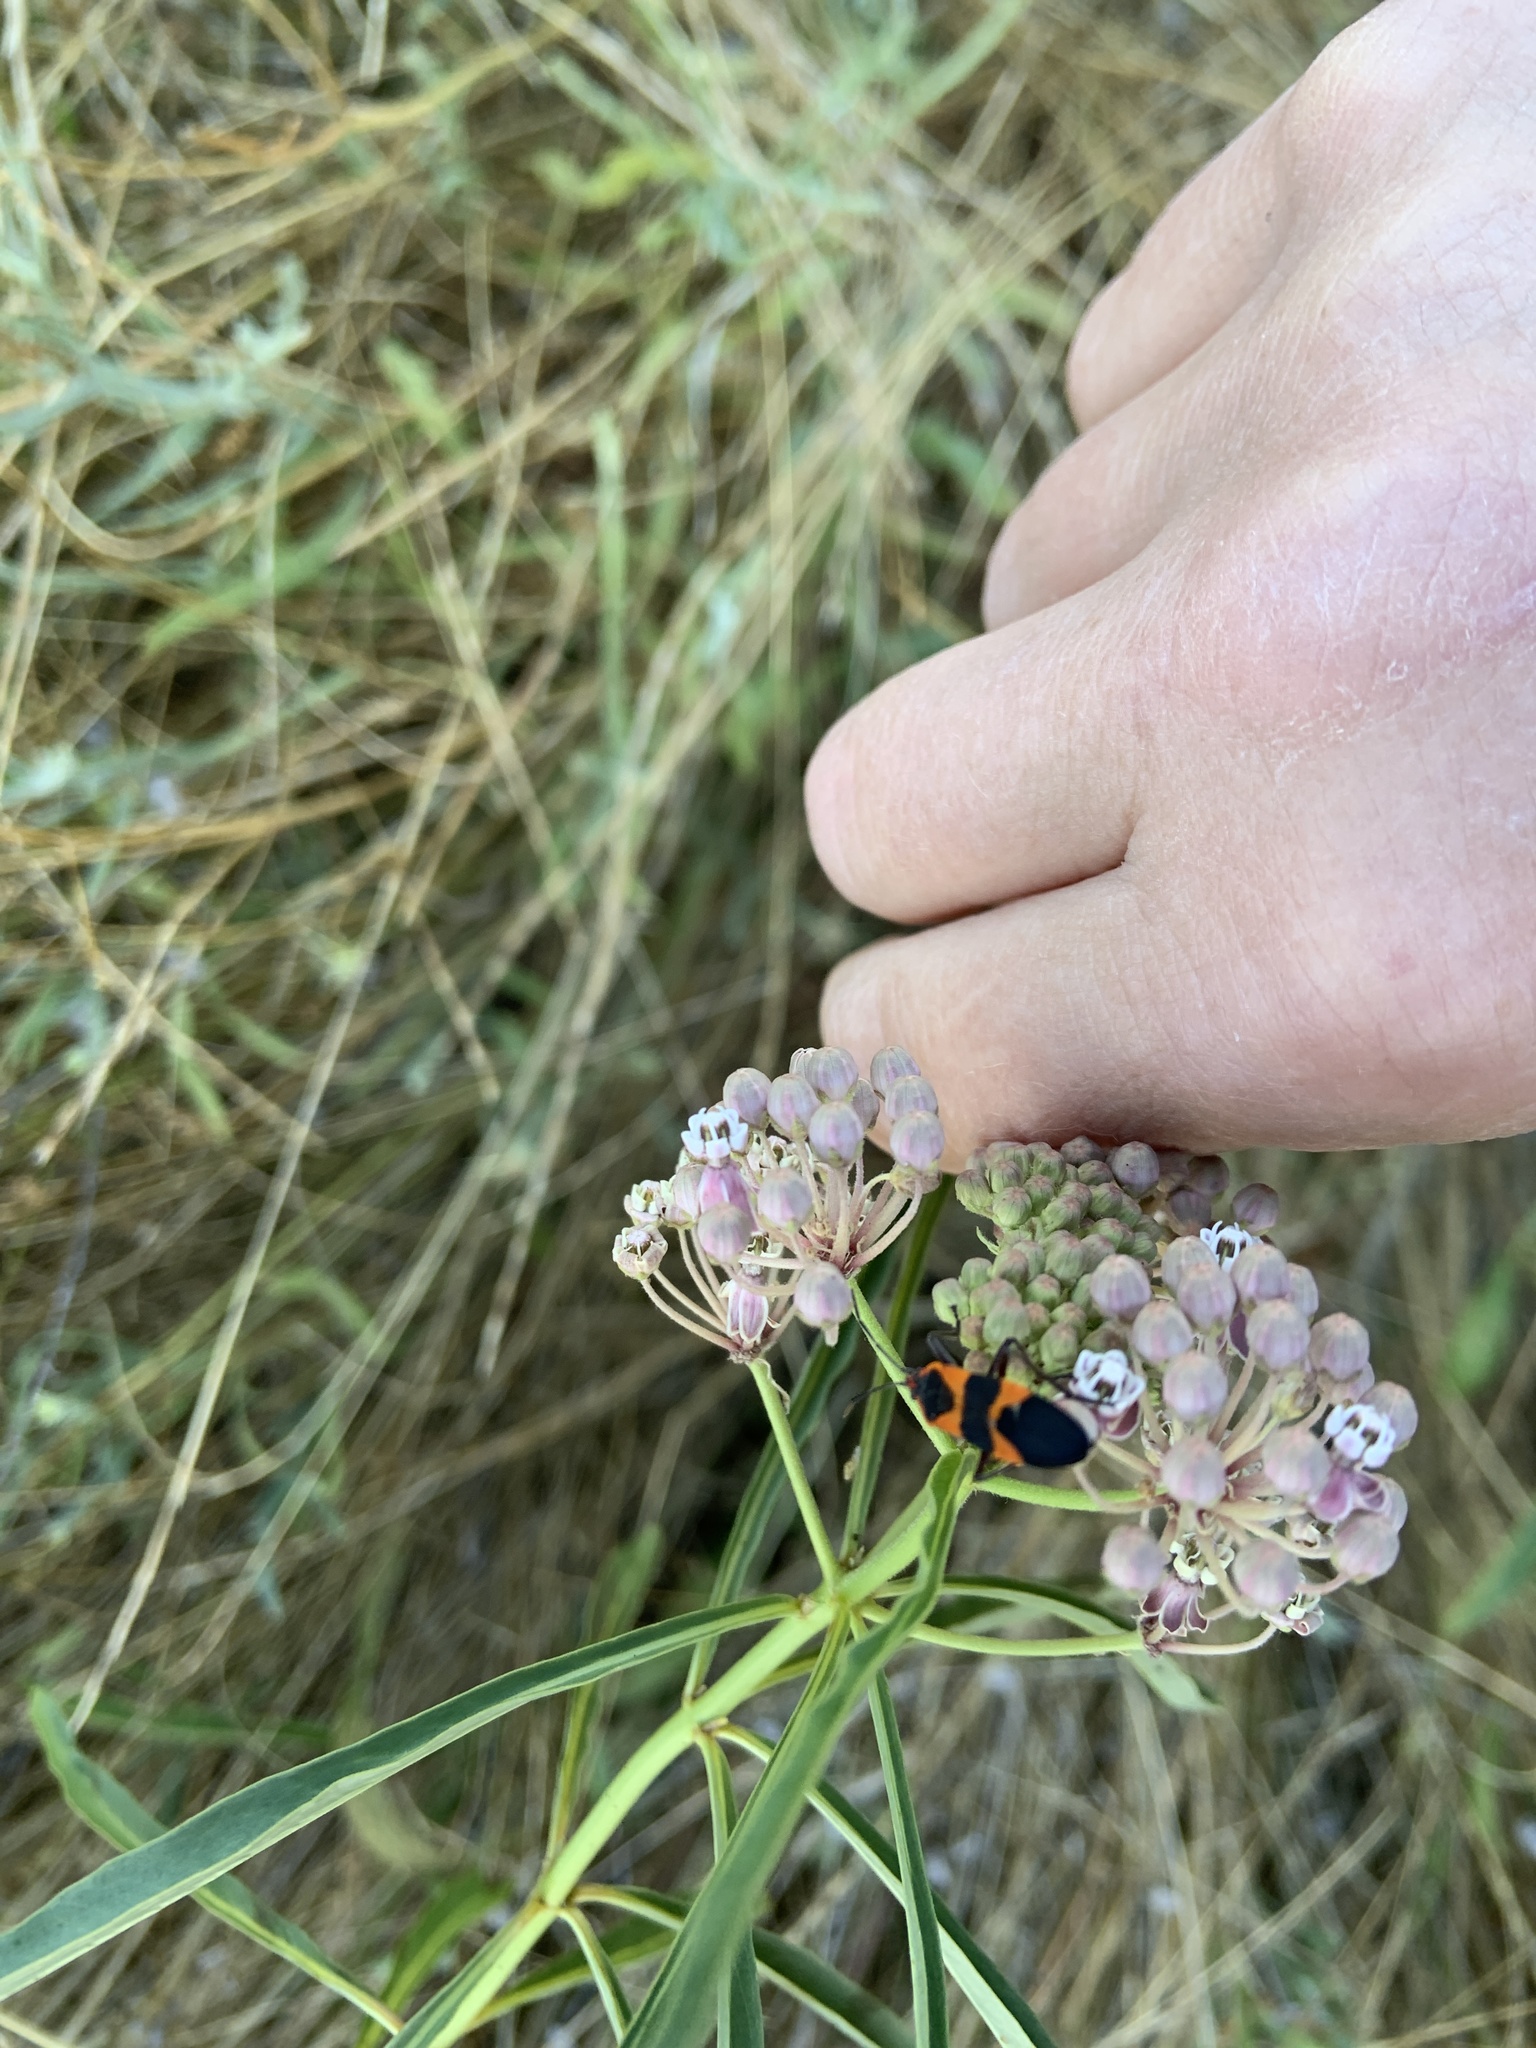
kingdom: Animalia
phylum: Arthropoda
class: Insecta
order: Hemiptera
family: Lygaeidae
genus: Oncopeltus
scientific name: Oncopeltus fasciatus
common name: Large milkweed bug
